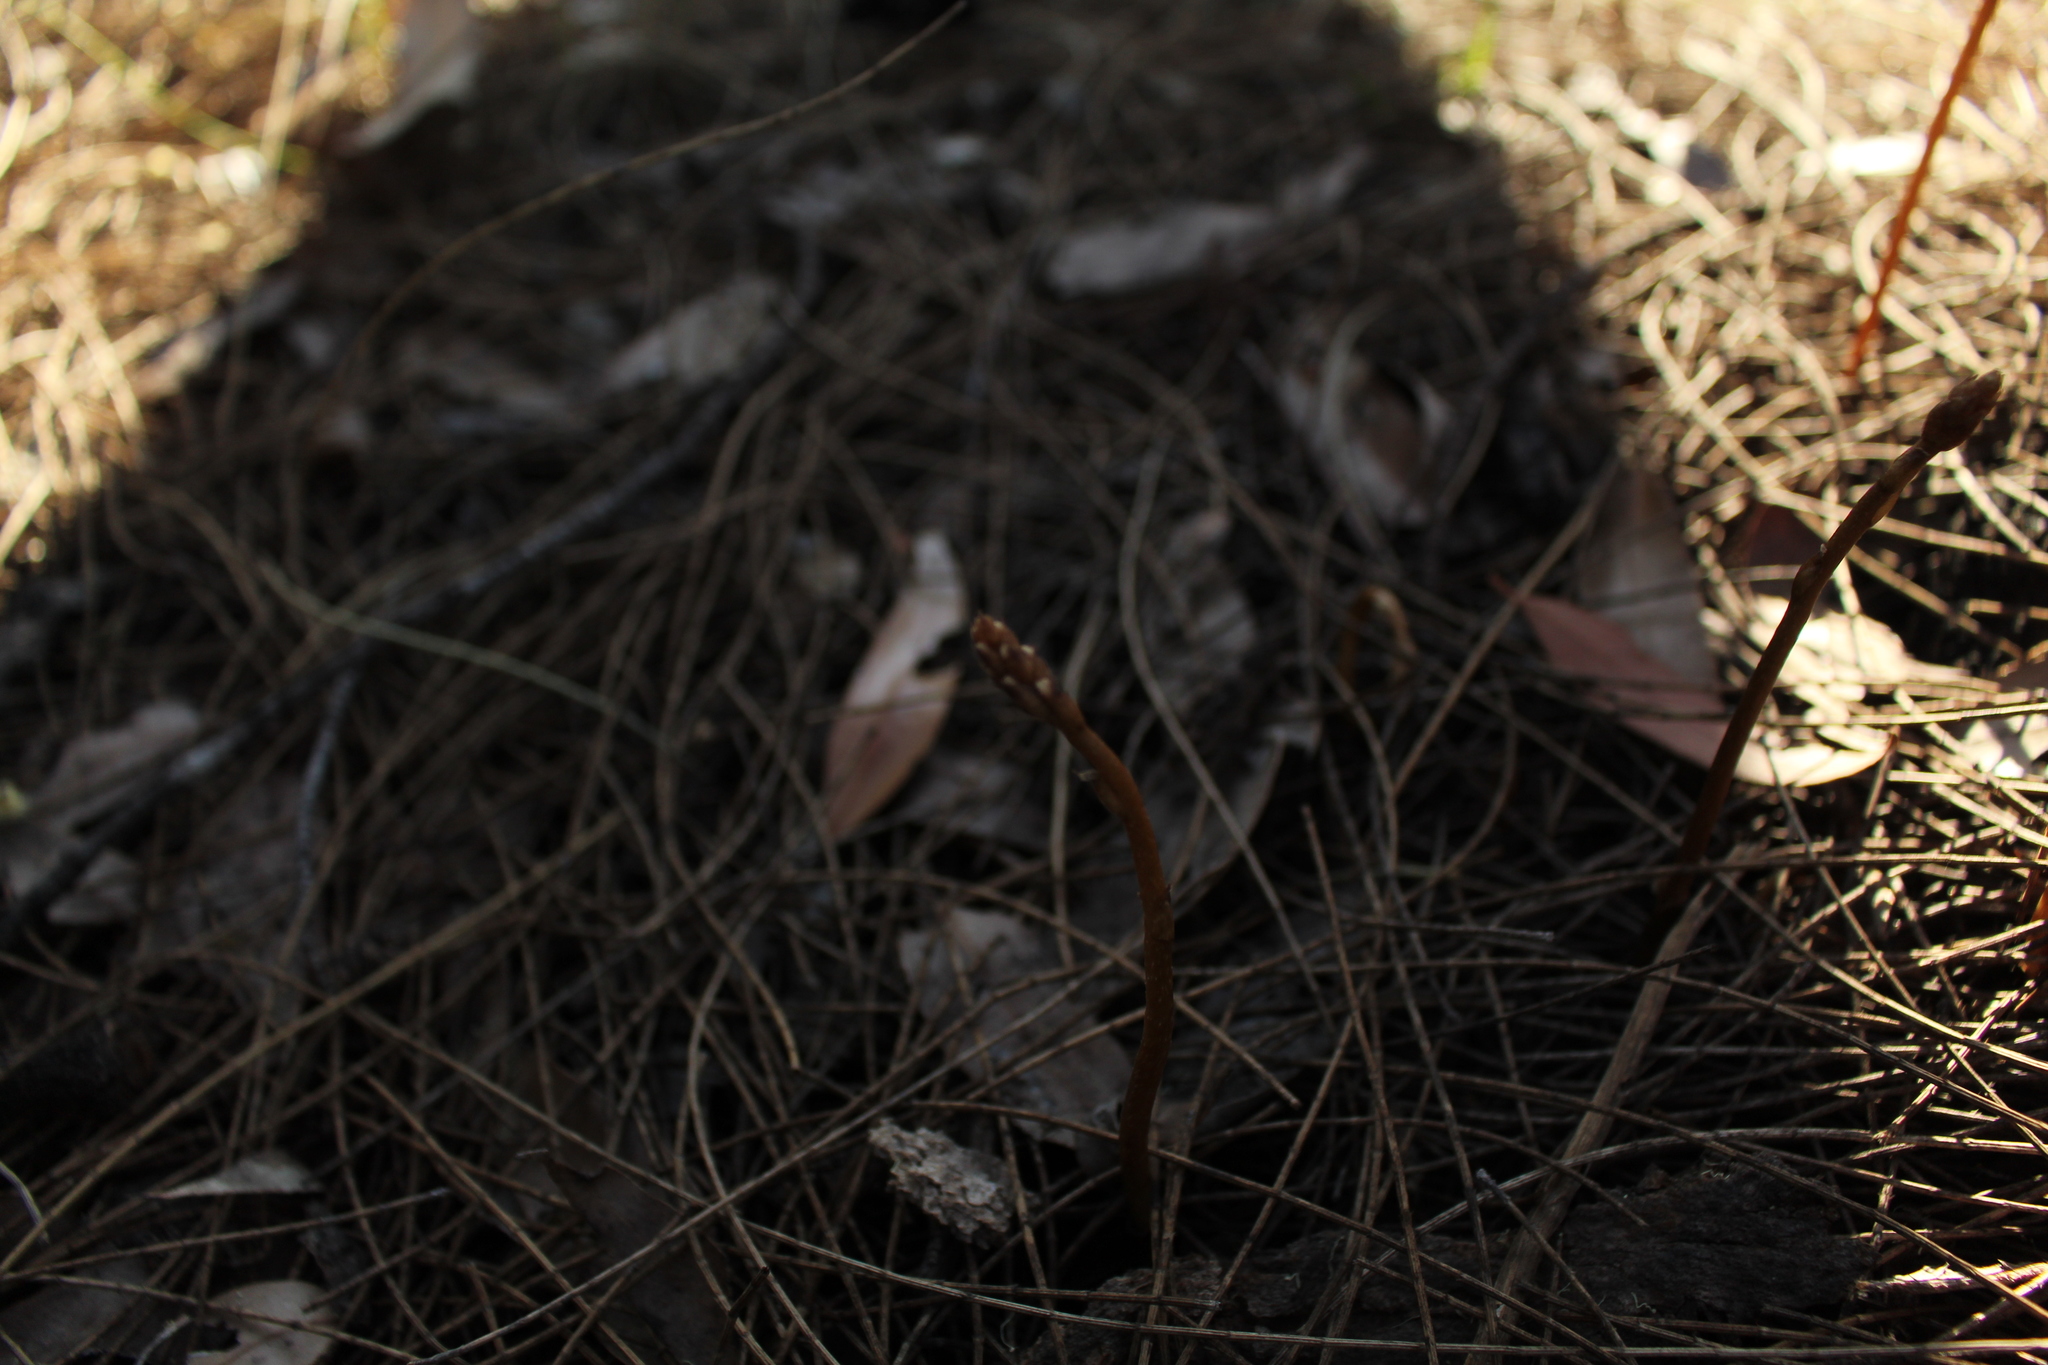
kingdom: Plantae
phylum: Tracheophyta
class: Liliopsida
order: Asparagales
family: Orchidaceae
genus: Gastrodia
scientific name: Gastrodia lacista
